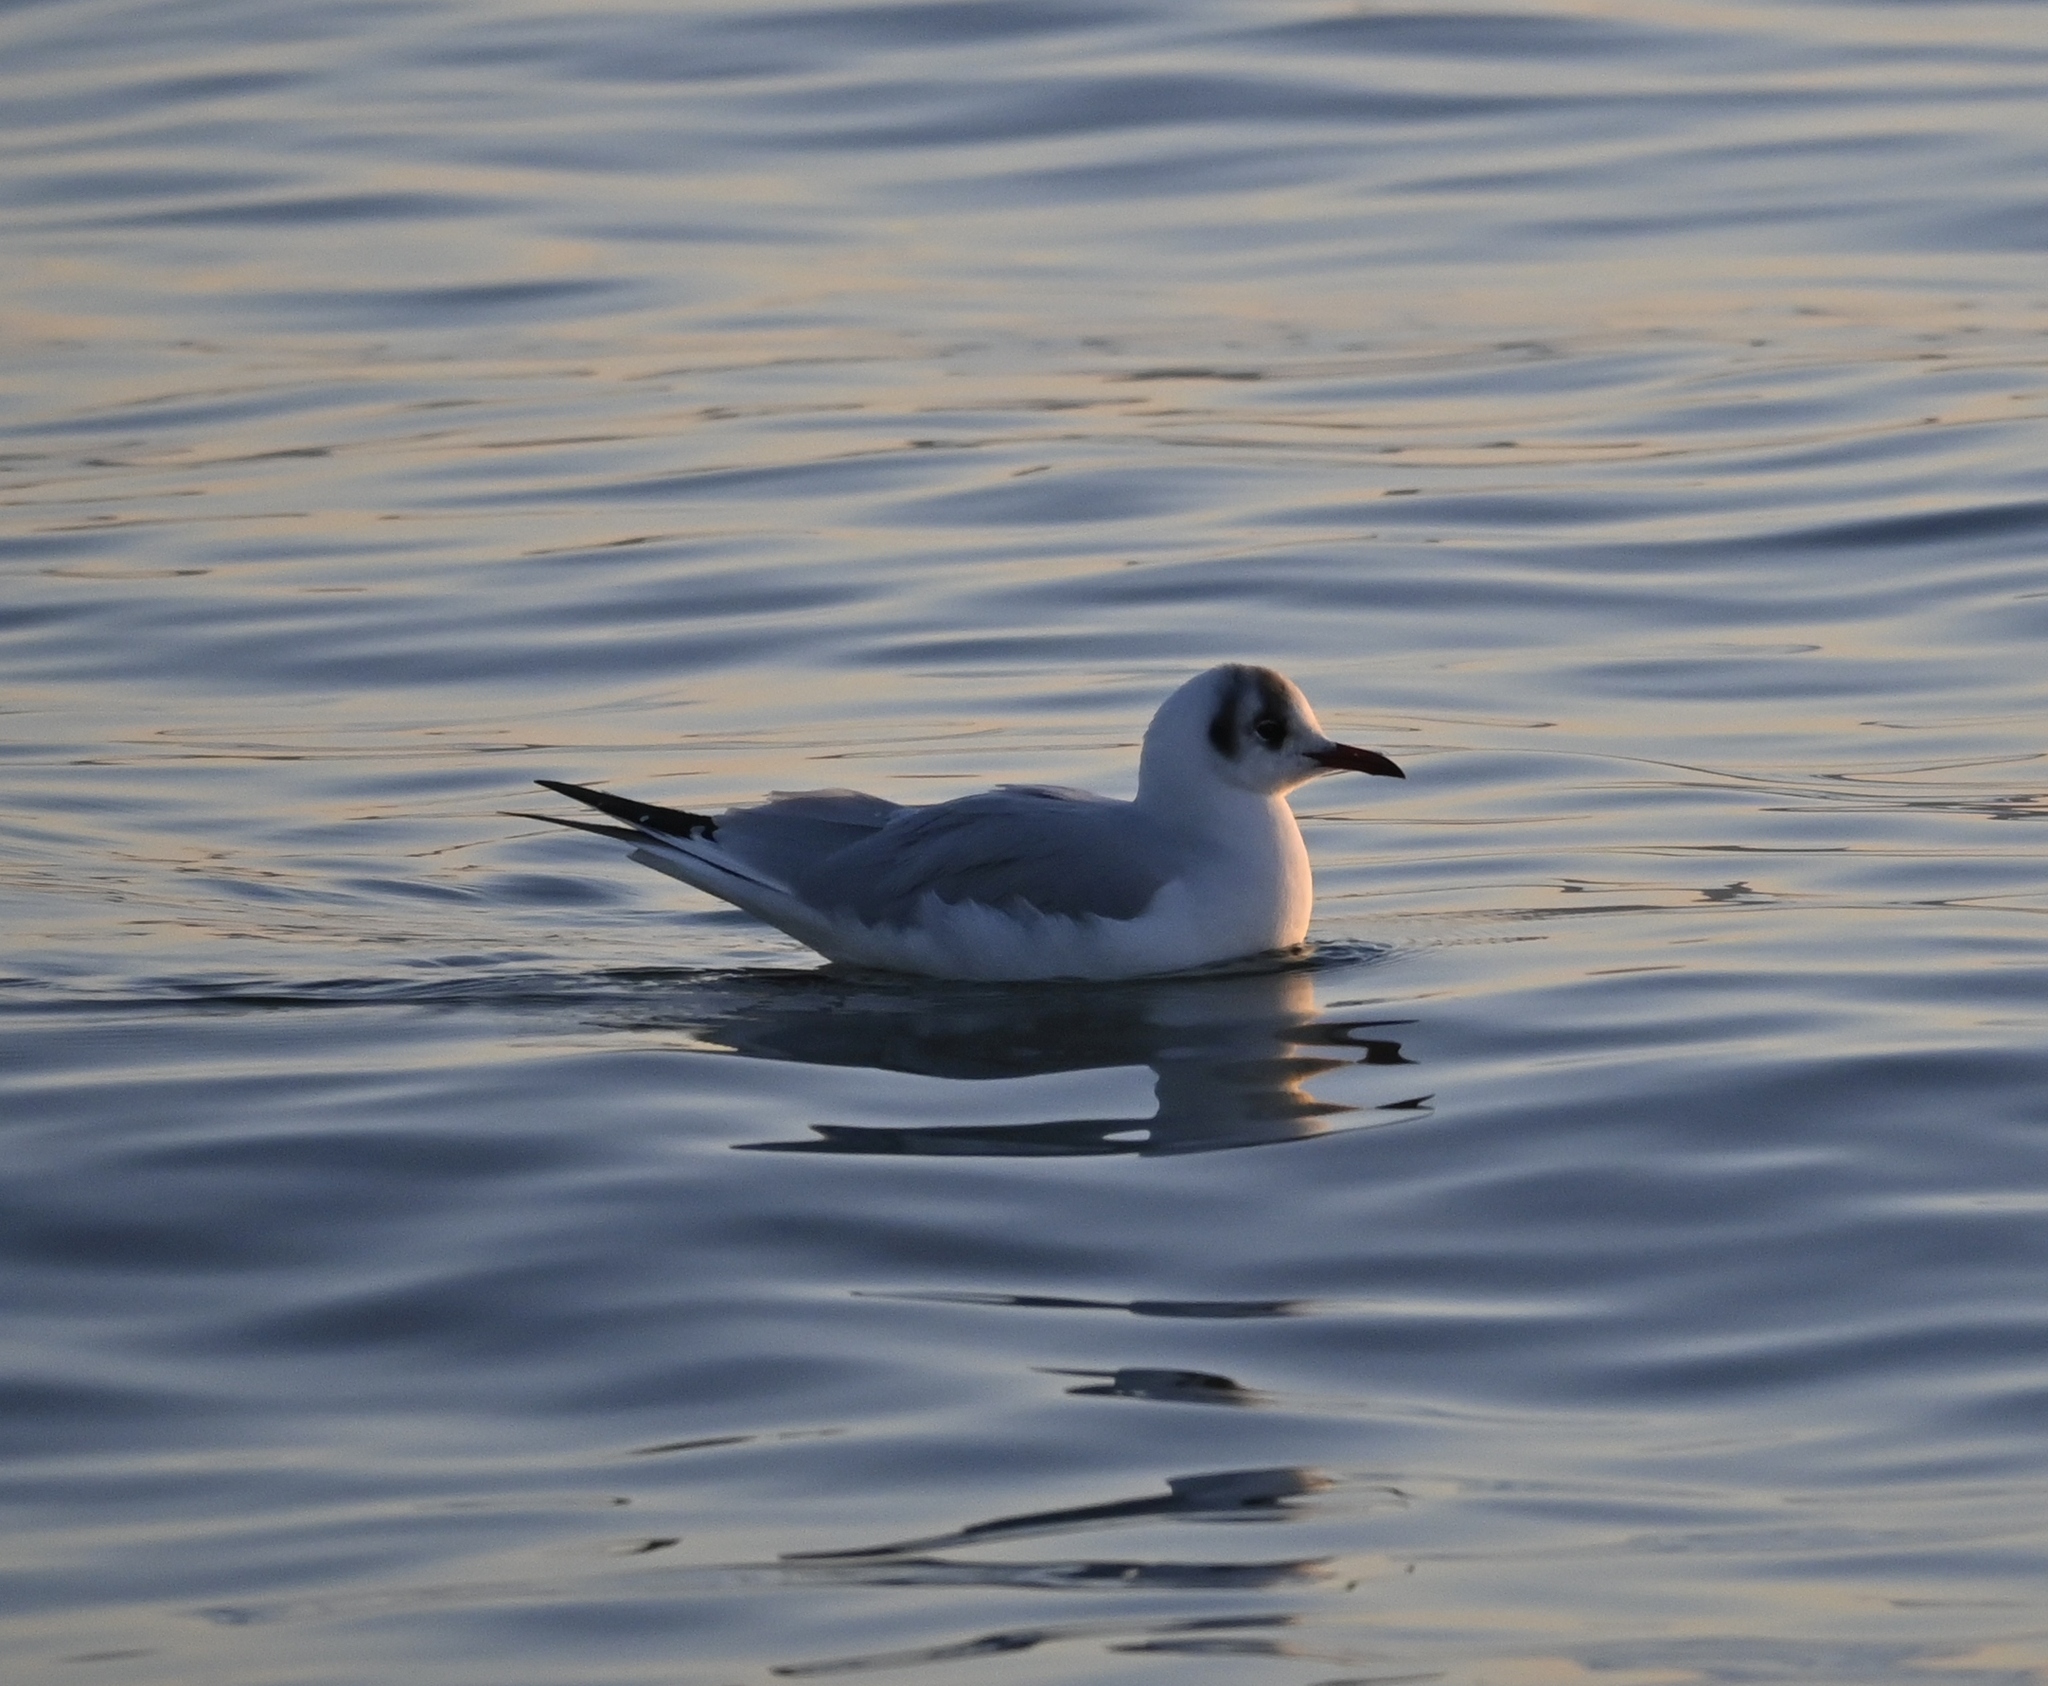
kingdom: Animalia
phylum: Chordata
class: Aves
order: Charadriiformes
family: Laridae
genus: Chroicocephalus
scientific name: Chroicocephalus ridibundus
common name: Black-headed gull
